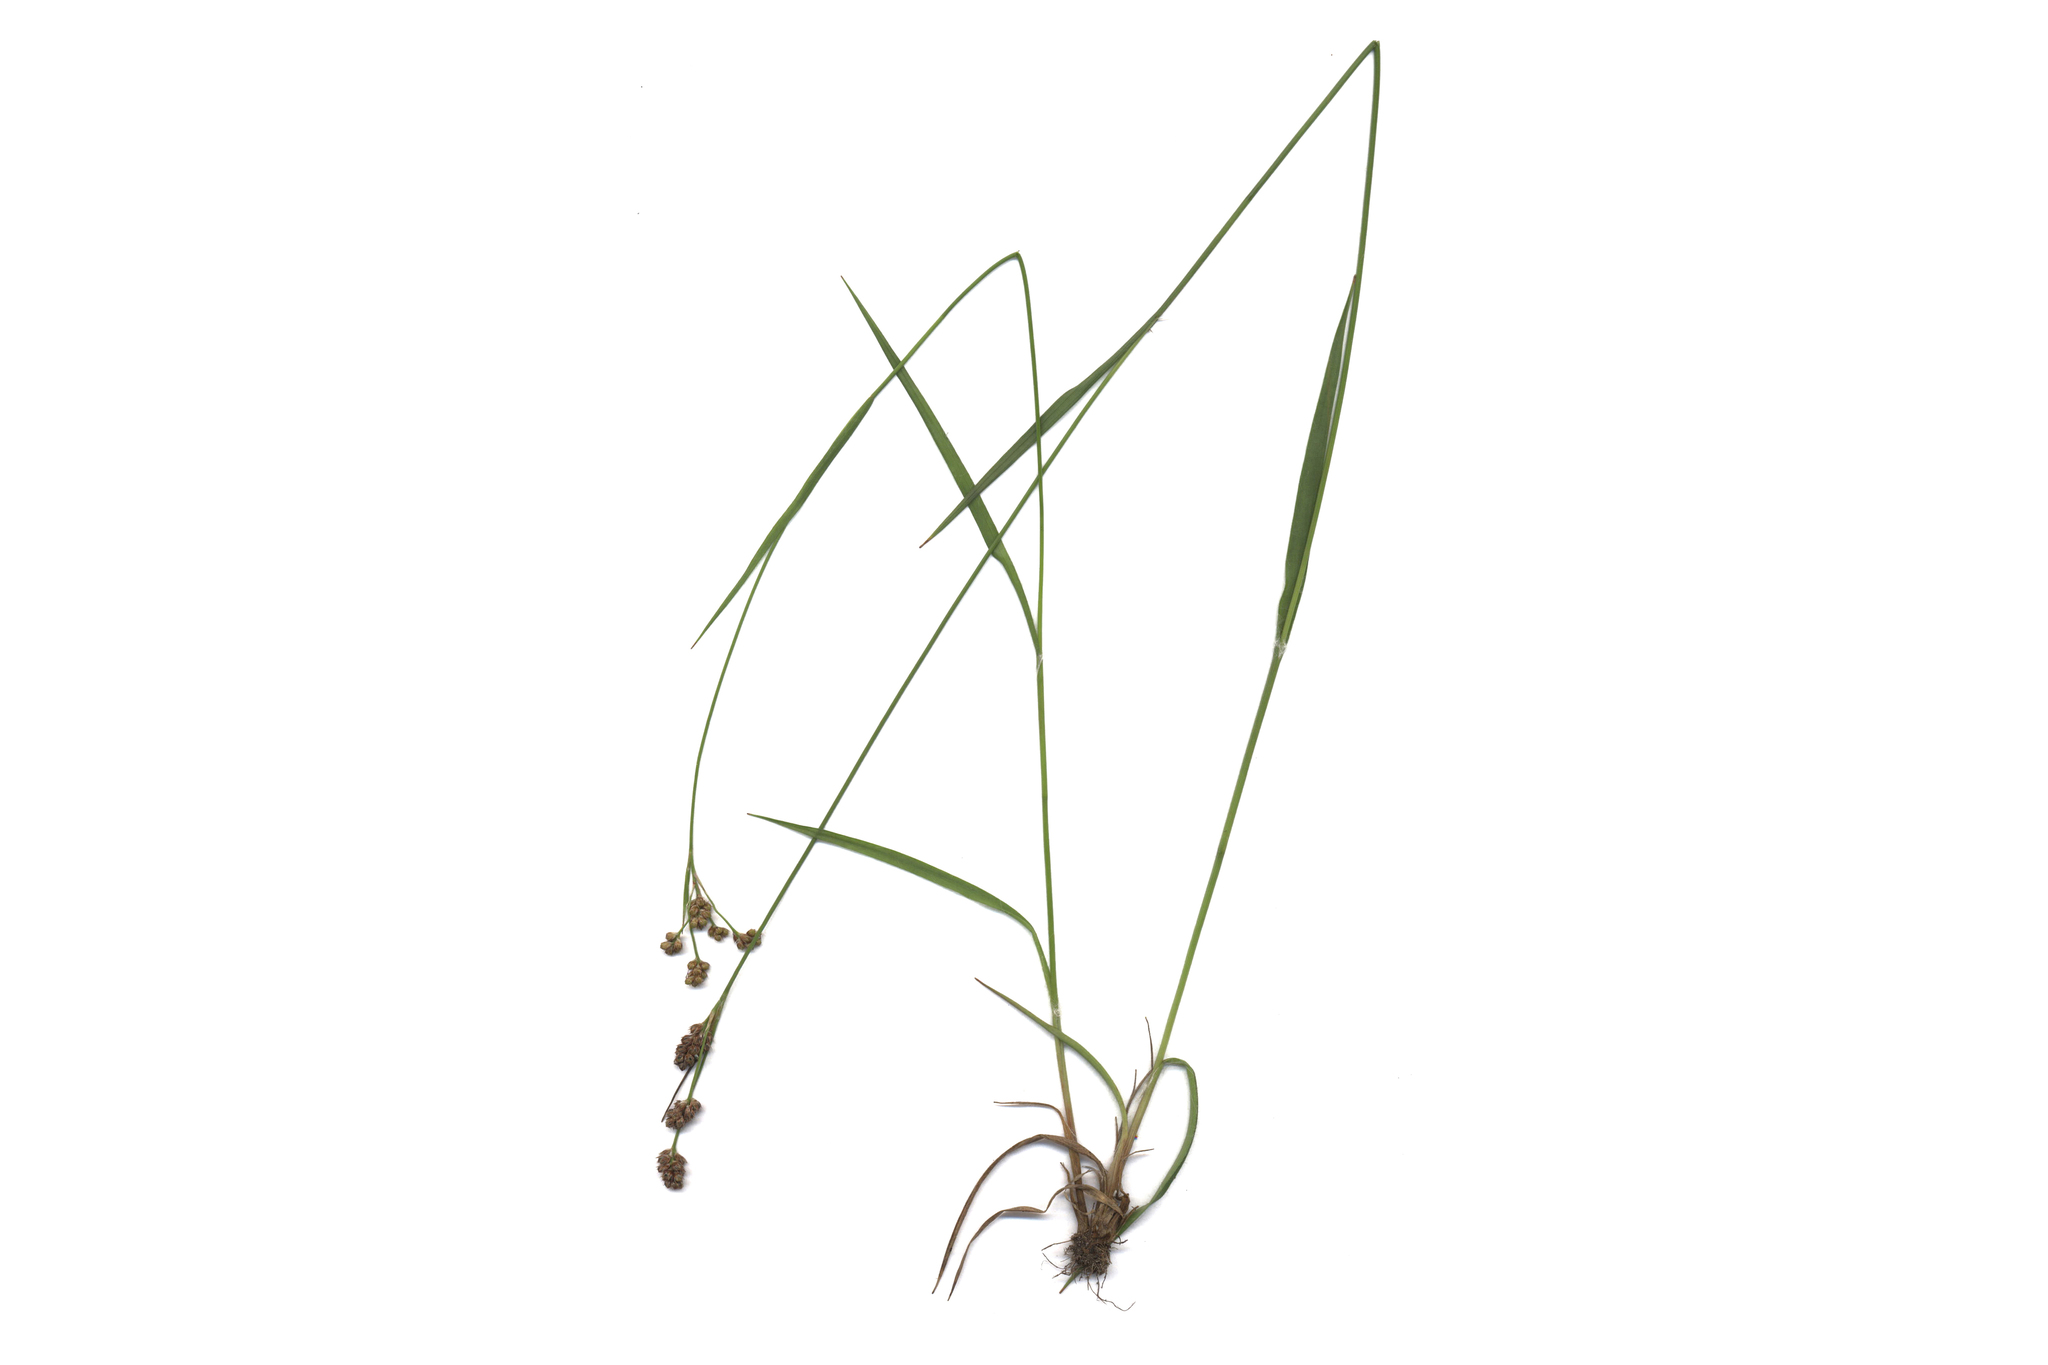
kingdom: Plantae
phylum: Tracheophyta
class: Liliopsida
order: Poales
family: Juncaceae
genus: Luzula
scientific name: Luzula pallescens
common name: Fen wood-rush
